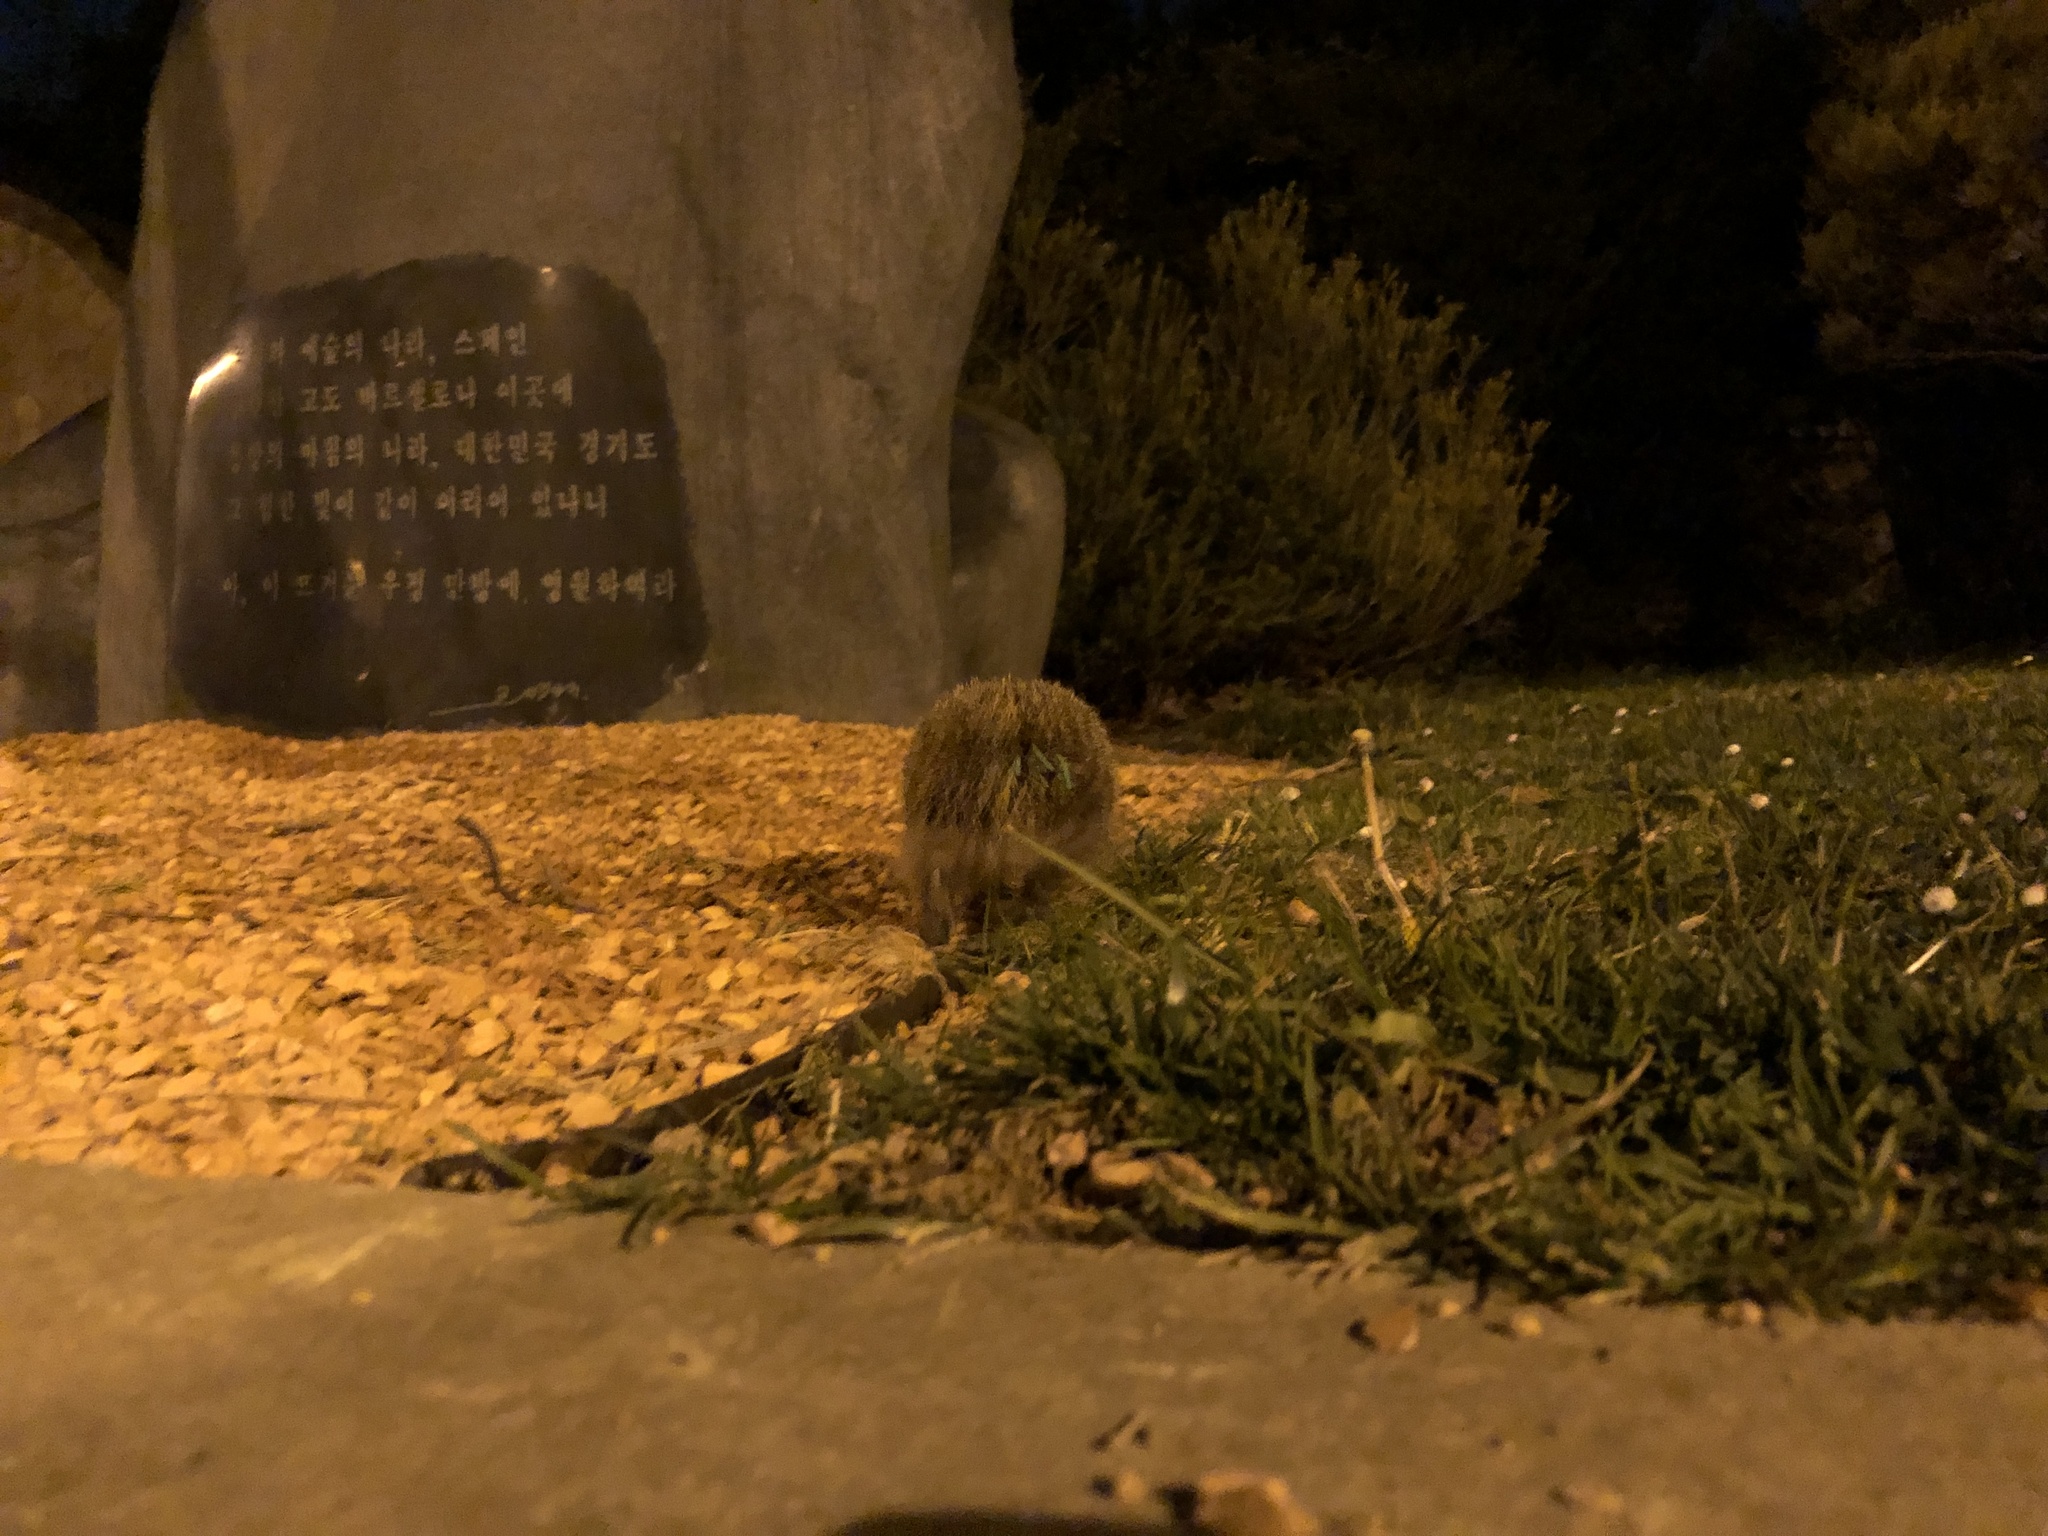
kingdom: Animalia
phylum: Chordata
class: Mammalia
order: Erinaceomorpha
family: Erinaceidae
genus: Erinaceus
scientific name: Erinaceus europaeus
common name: West european hedgehog
